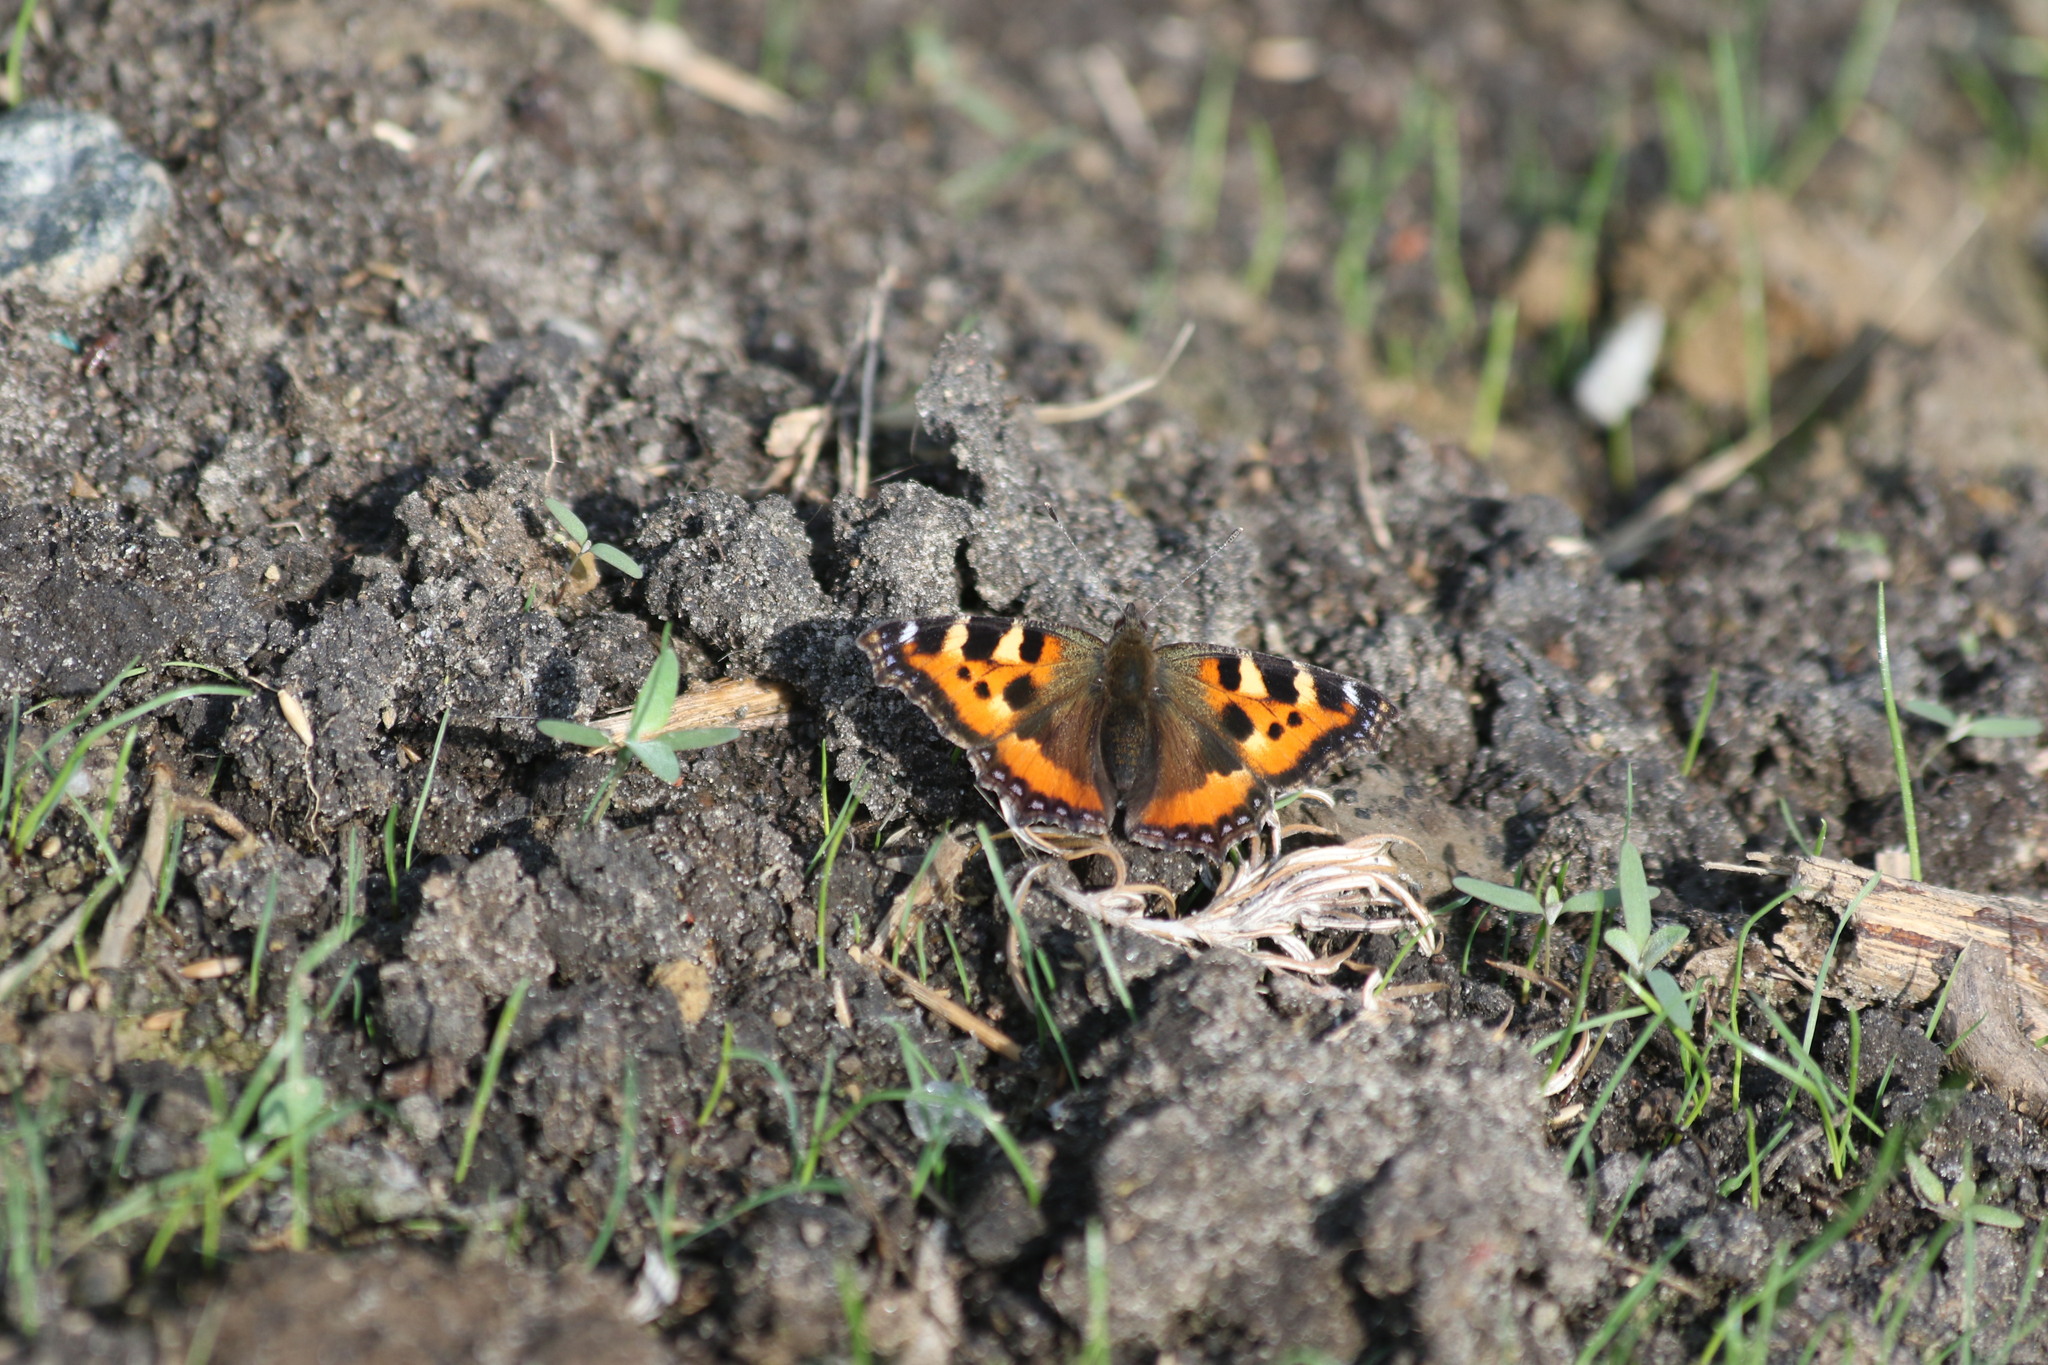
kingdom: Animalia
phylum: Arthropoda
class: Insecta
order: Lepidoptera
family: Nymphalidae
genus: Aglais
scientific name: Aglais urticae
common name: Small tortoiseshell
